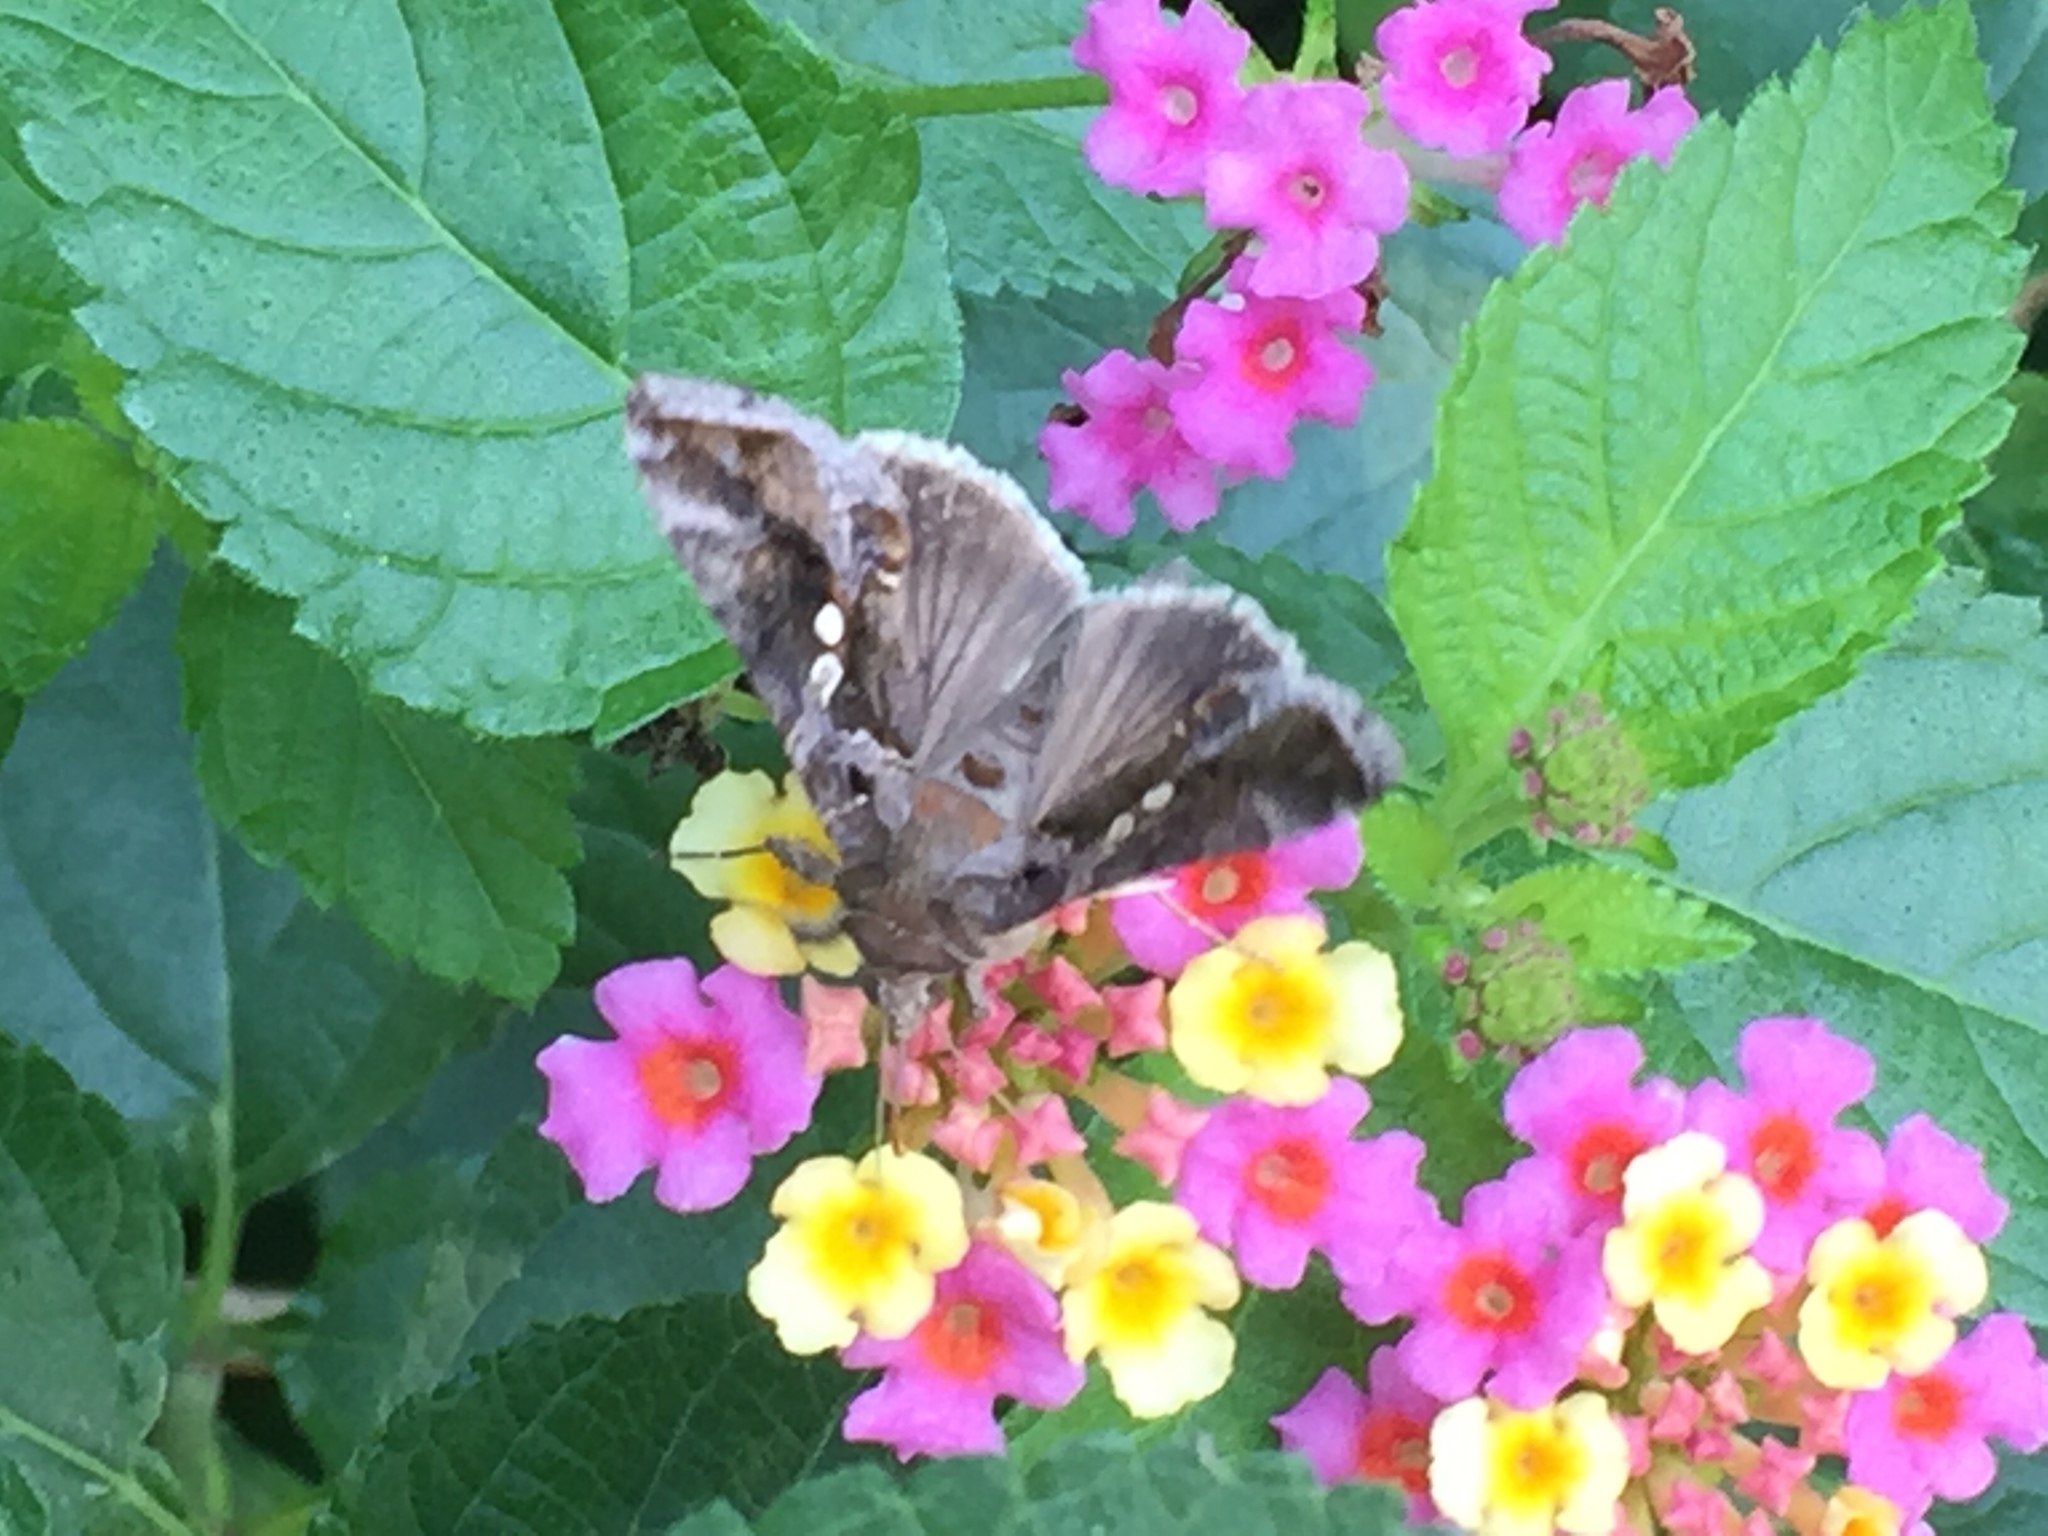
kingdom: Animalia
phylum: Arthropoda
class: Insecta
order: Lepidoptera
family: Noctuidae
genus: Chrysodeixis
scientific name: Chrysodeixis includens
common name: Cutworm moth
